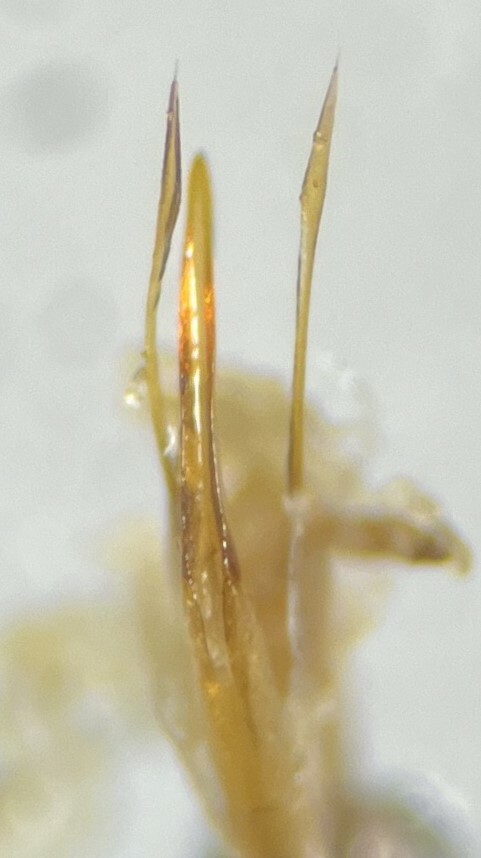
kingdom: Animalia
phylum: Arthropoda
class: Insecta
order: Coleoptera
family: Dytiscidae
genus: Celina
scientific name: Celina slossoni
